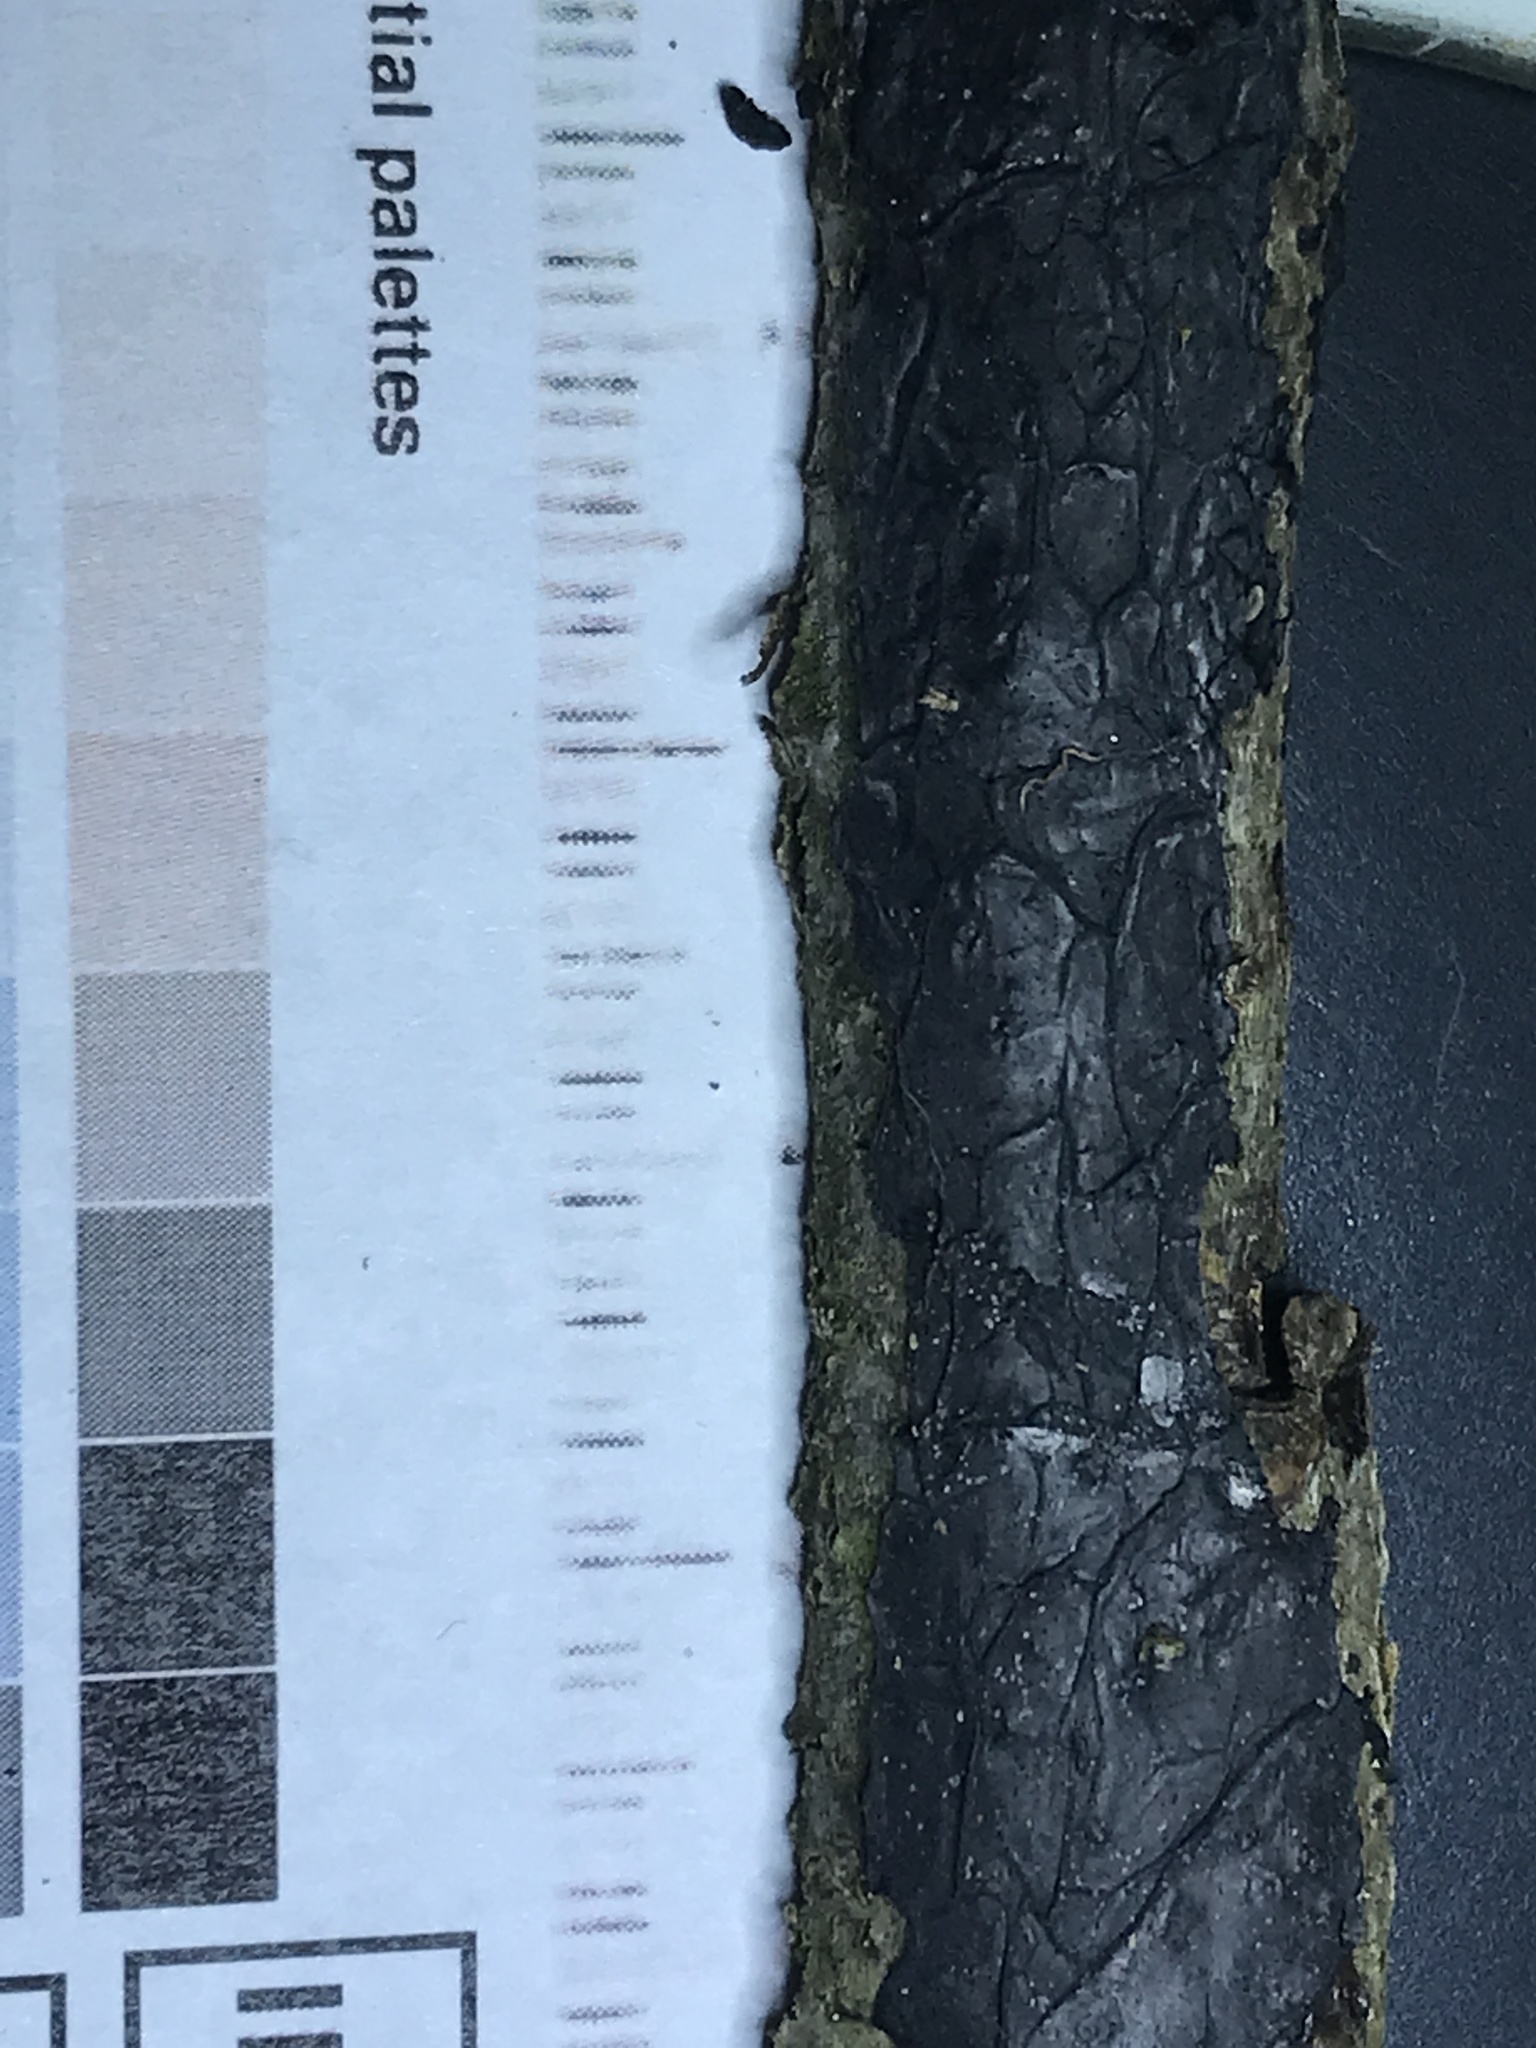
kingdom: Fungi
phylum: Basidiomycota
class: Agaricomycetes
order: Auriculariales
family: Auriculariaceae
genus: Exidia
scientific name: Exidia glandulosa
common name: Witches' butter
